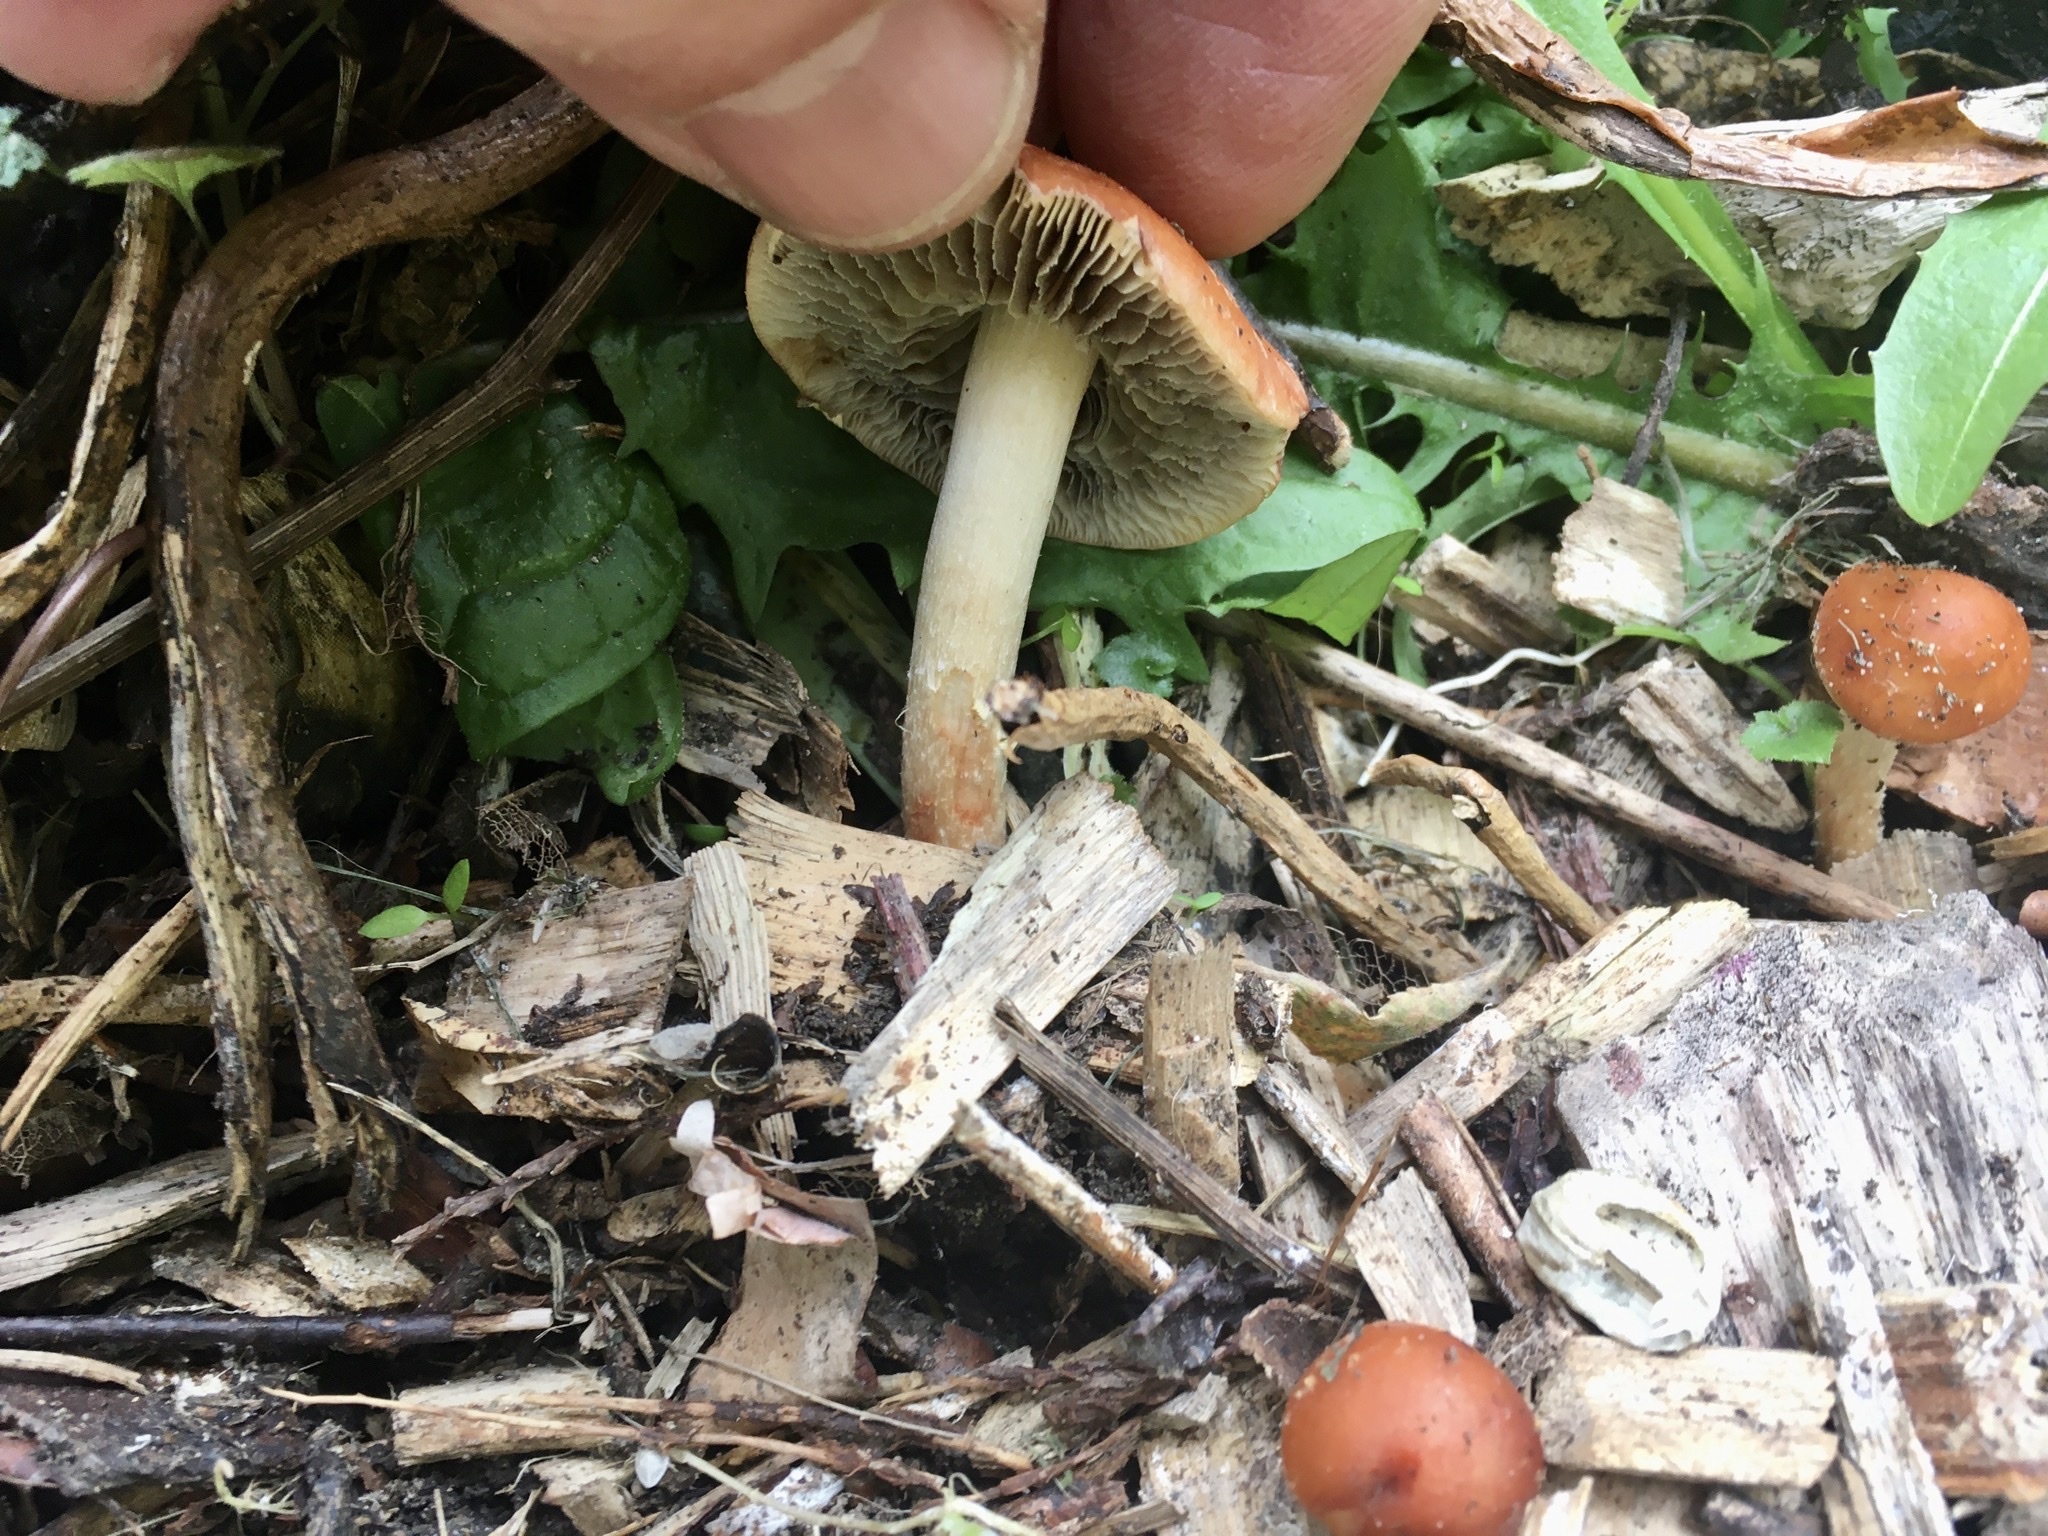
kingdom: Fungi
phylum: Basidiomycota
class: Agaricomycetes
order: Agaricales
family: Strophariaceae
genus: Leratiomyces
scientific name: Leratiomyces ceres
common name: Redlead roundhead
